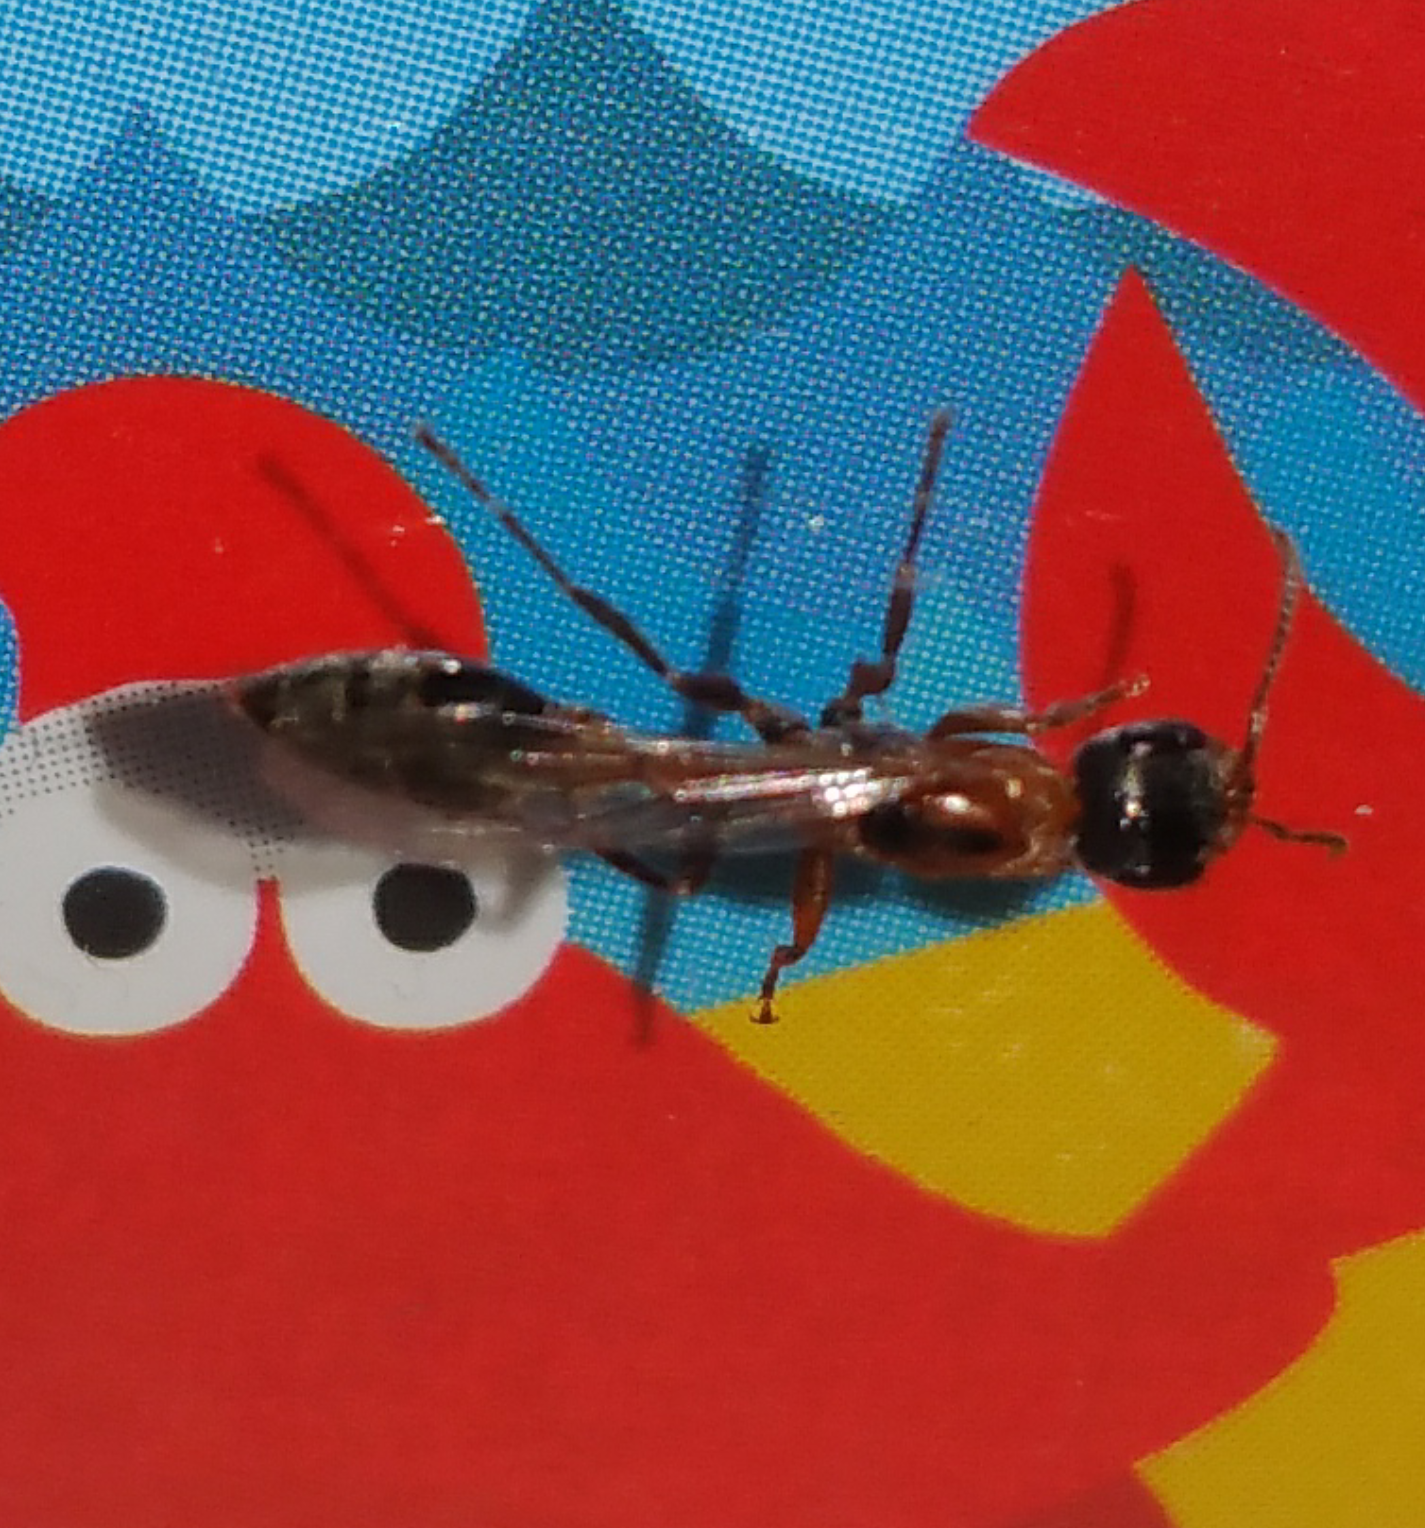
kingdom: Animalia
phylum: Arthropoda
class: Insecta
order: Hymenoptera
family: Formicidae
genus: Pseudomyrmex
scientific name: Pseudomyrmex gracilis
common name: Graceful twig ant
